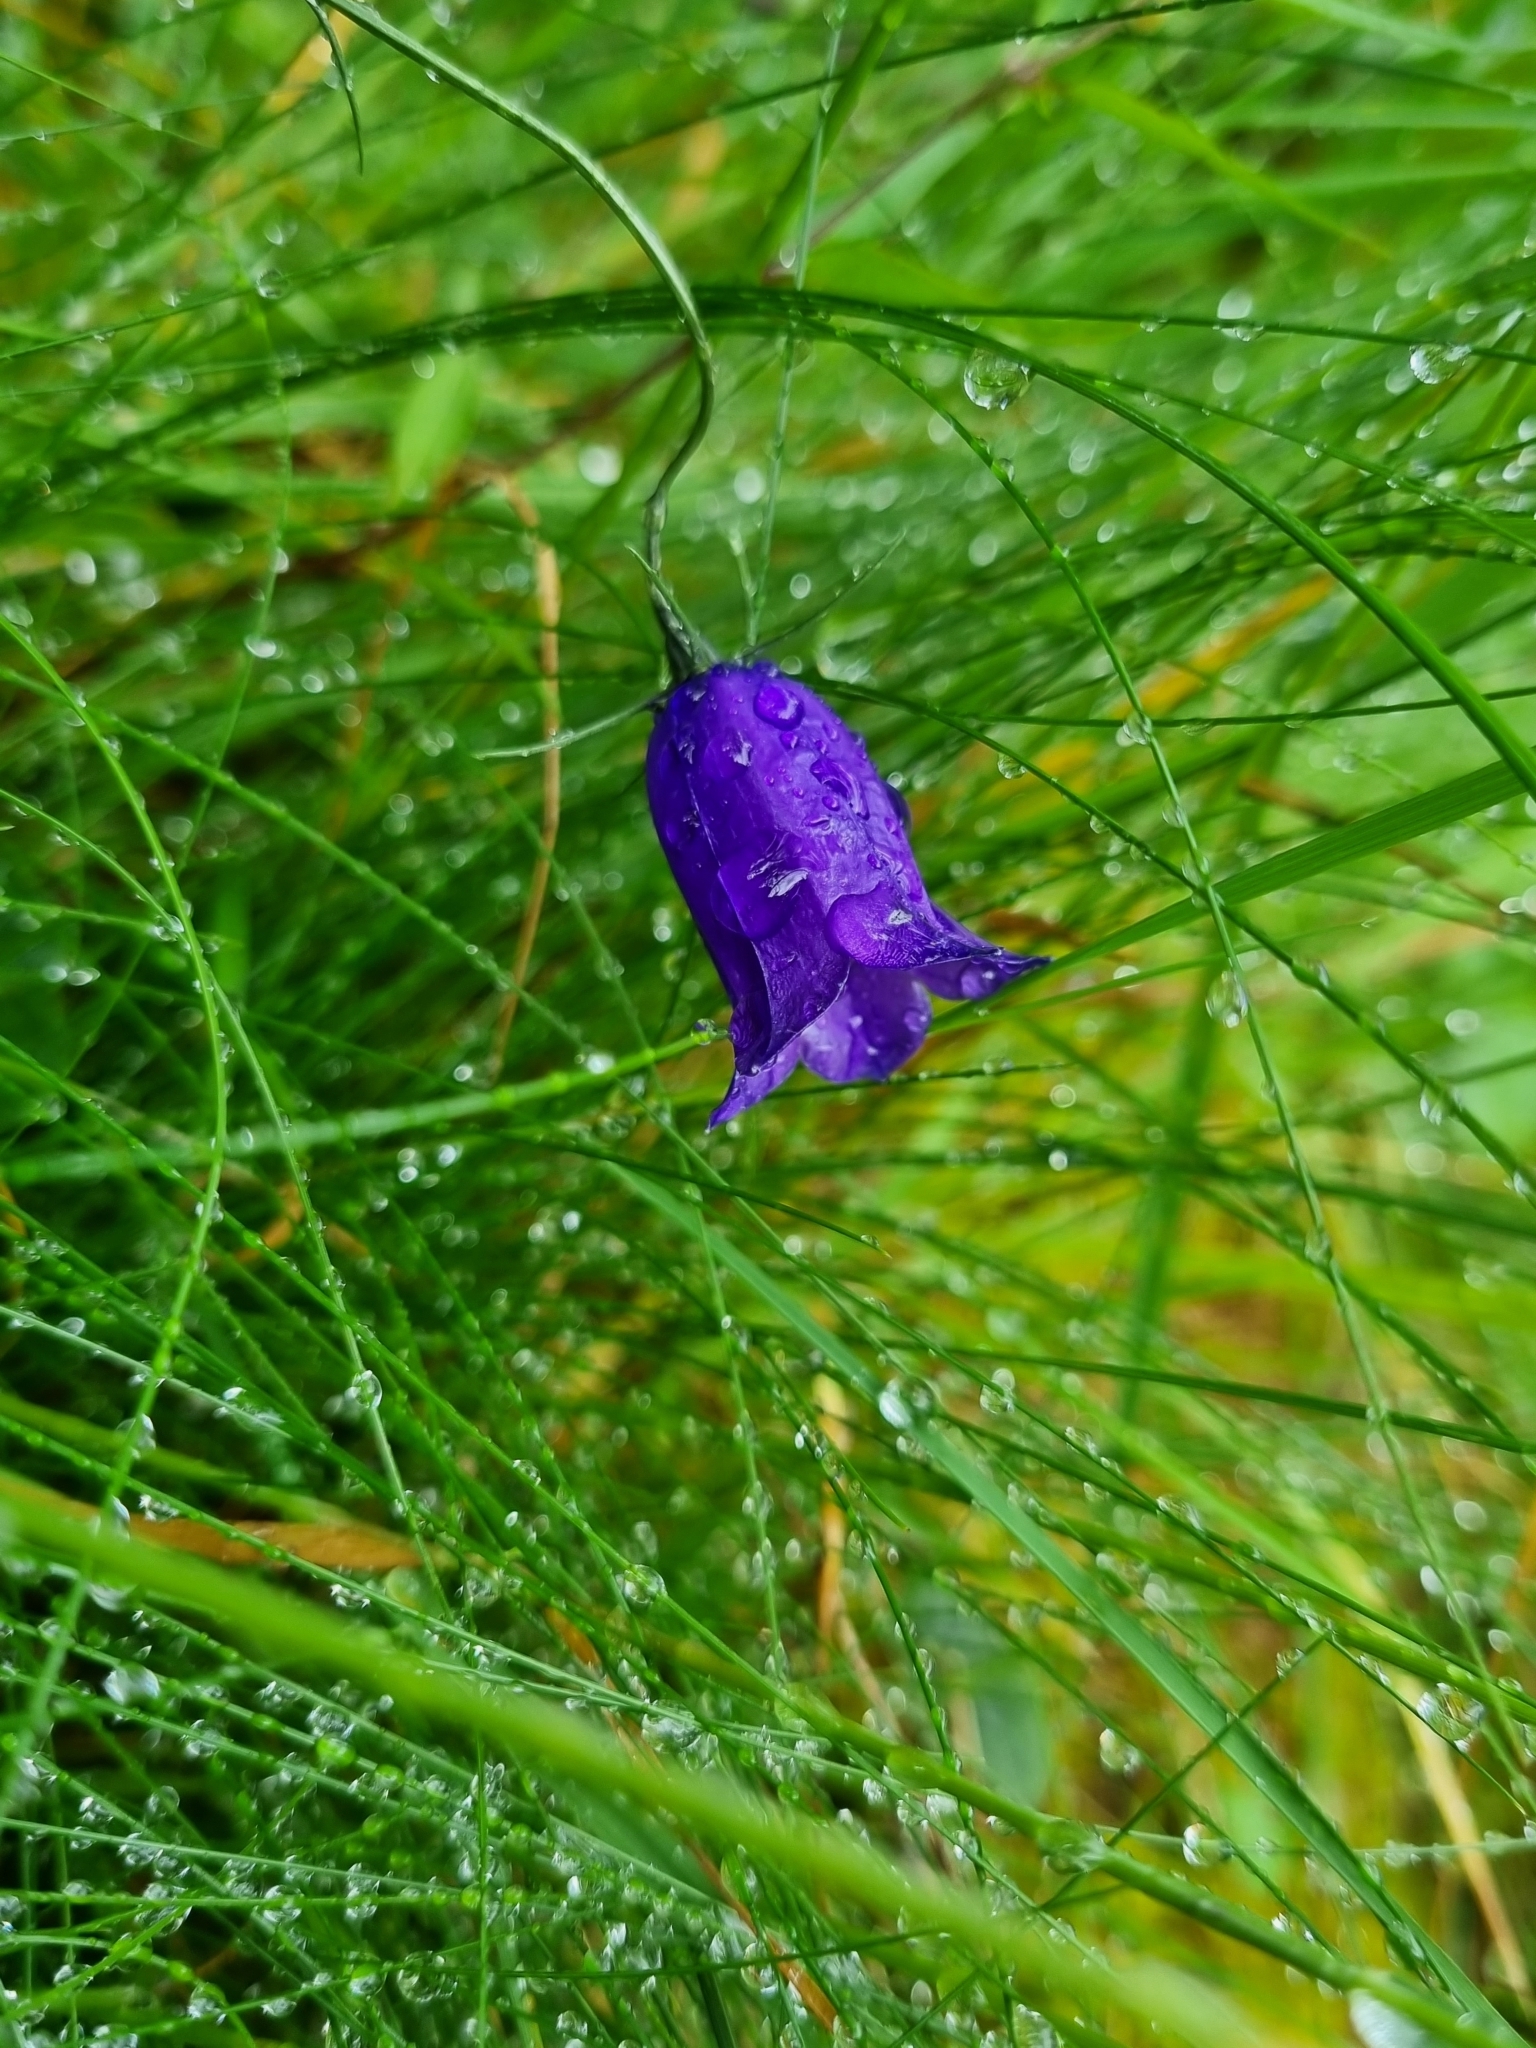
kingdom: Plantae
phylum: Tracheophyta
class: Magnoliopsida
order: Asterales
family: Campanulaceae
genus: Campanula
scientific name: Campanula scheuchzeri
